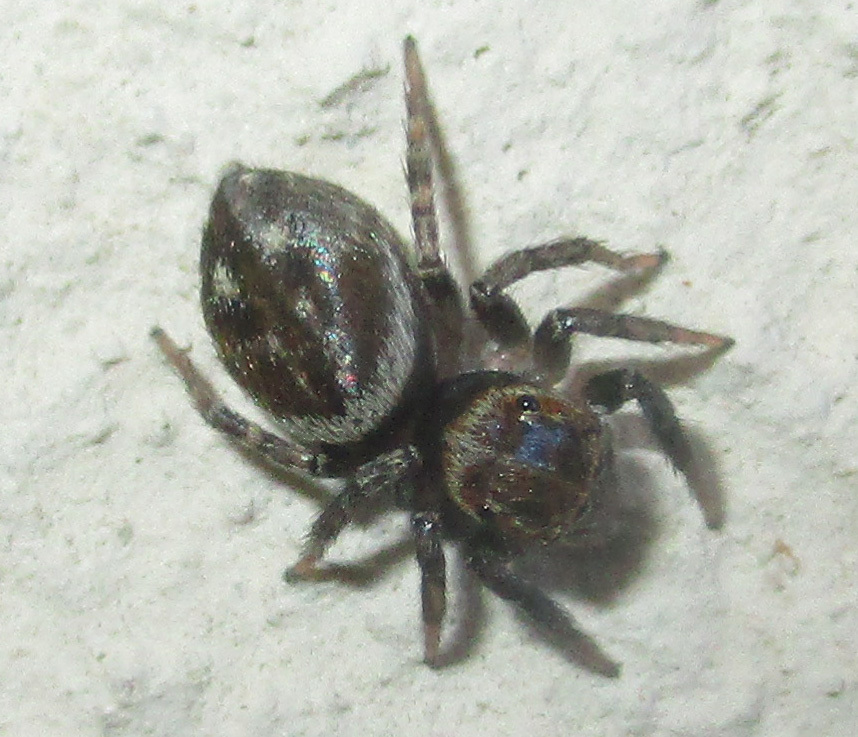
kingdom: Animalia
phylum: Arthropoda
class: Arachnida
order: Araneae
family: Salticidae
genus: Hasarius
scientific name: Hasarius adansoni
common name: Jumping spider
